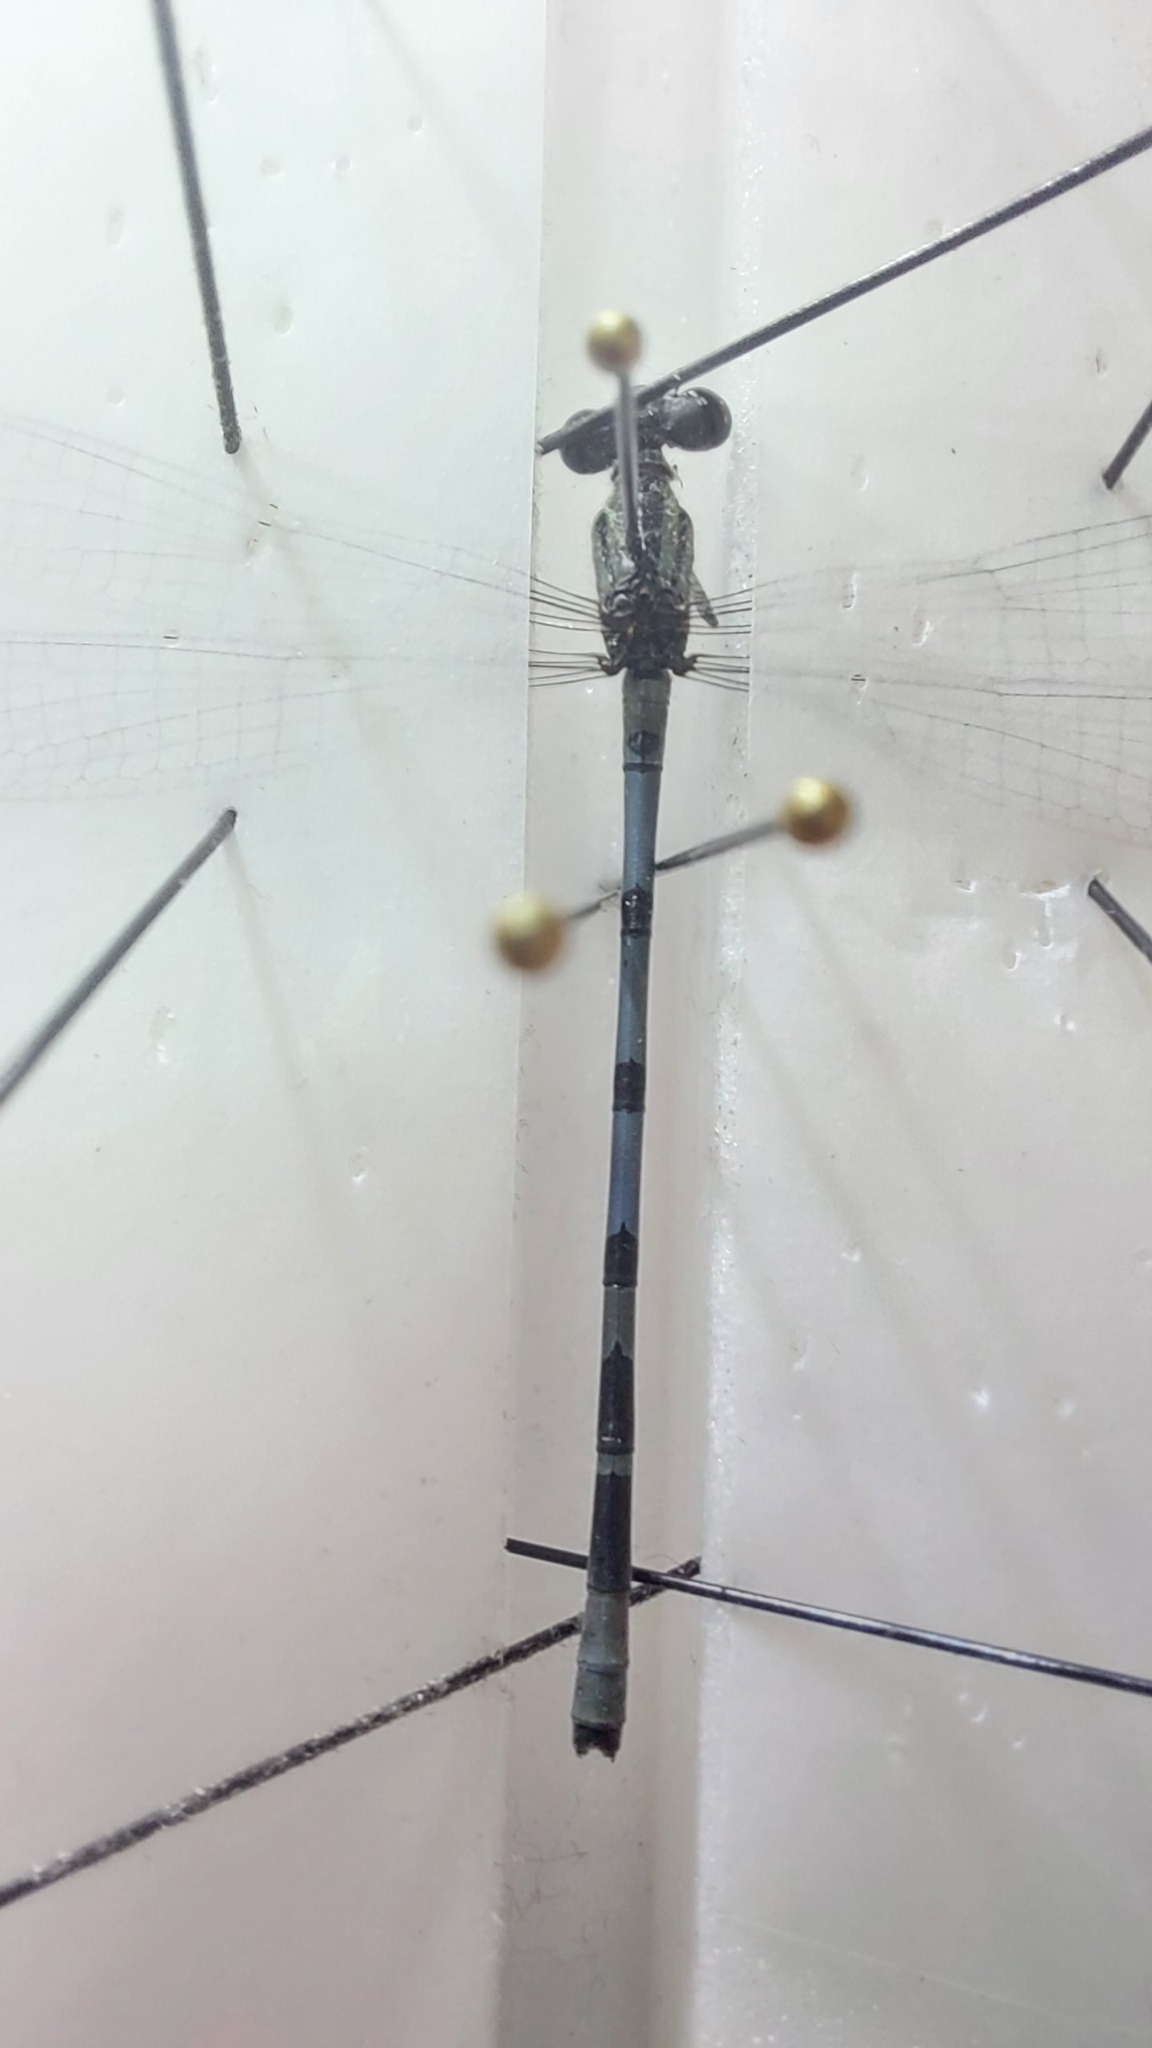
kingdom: Animalia
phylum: Arthropoda
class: Insecta
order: Odonata
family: Coenagrionidae
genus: Enallagma
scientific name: Enallagma cyathigerum
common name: Common blue damselfly
